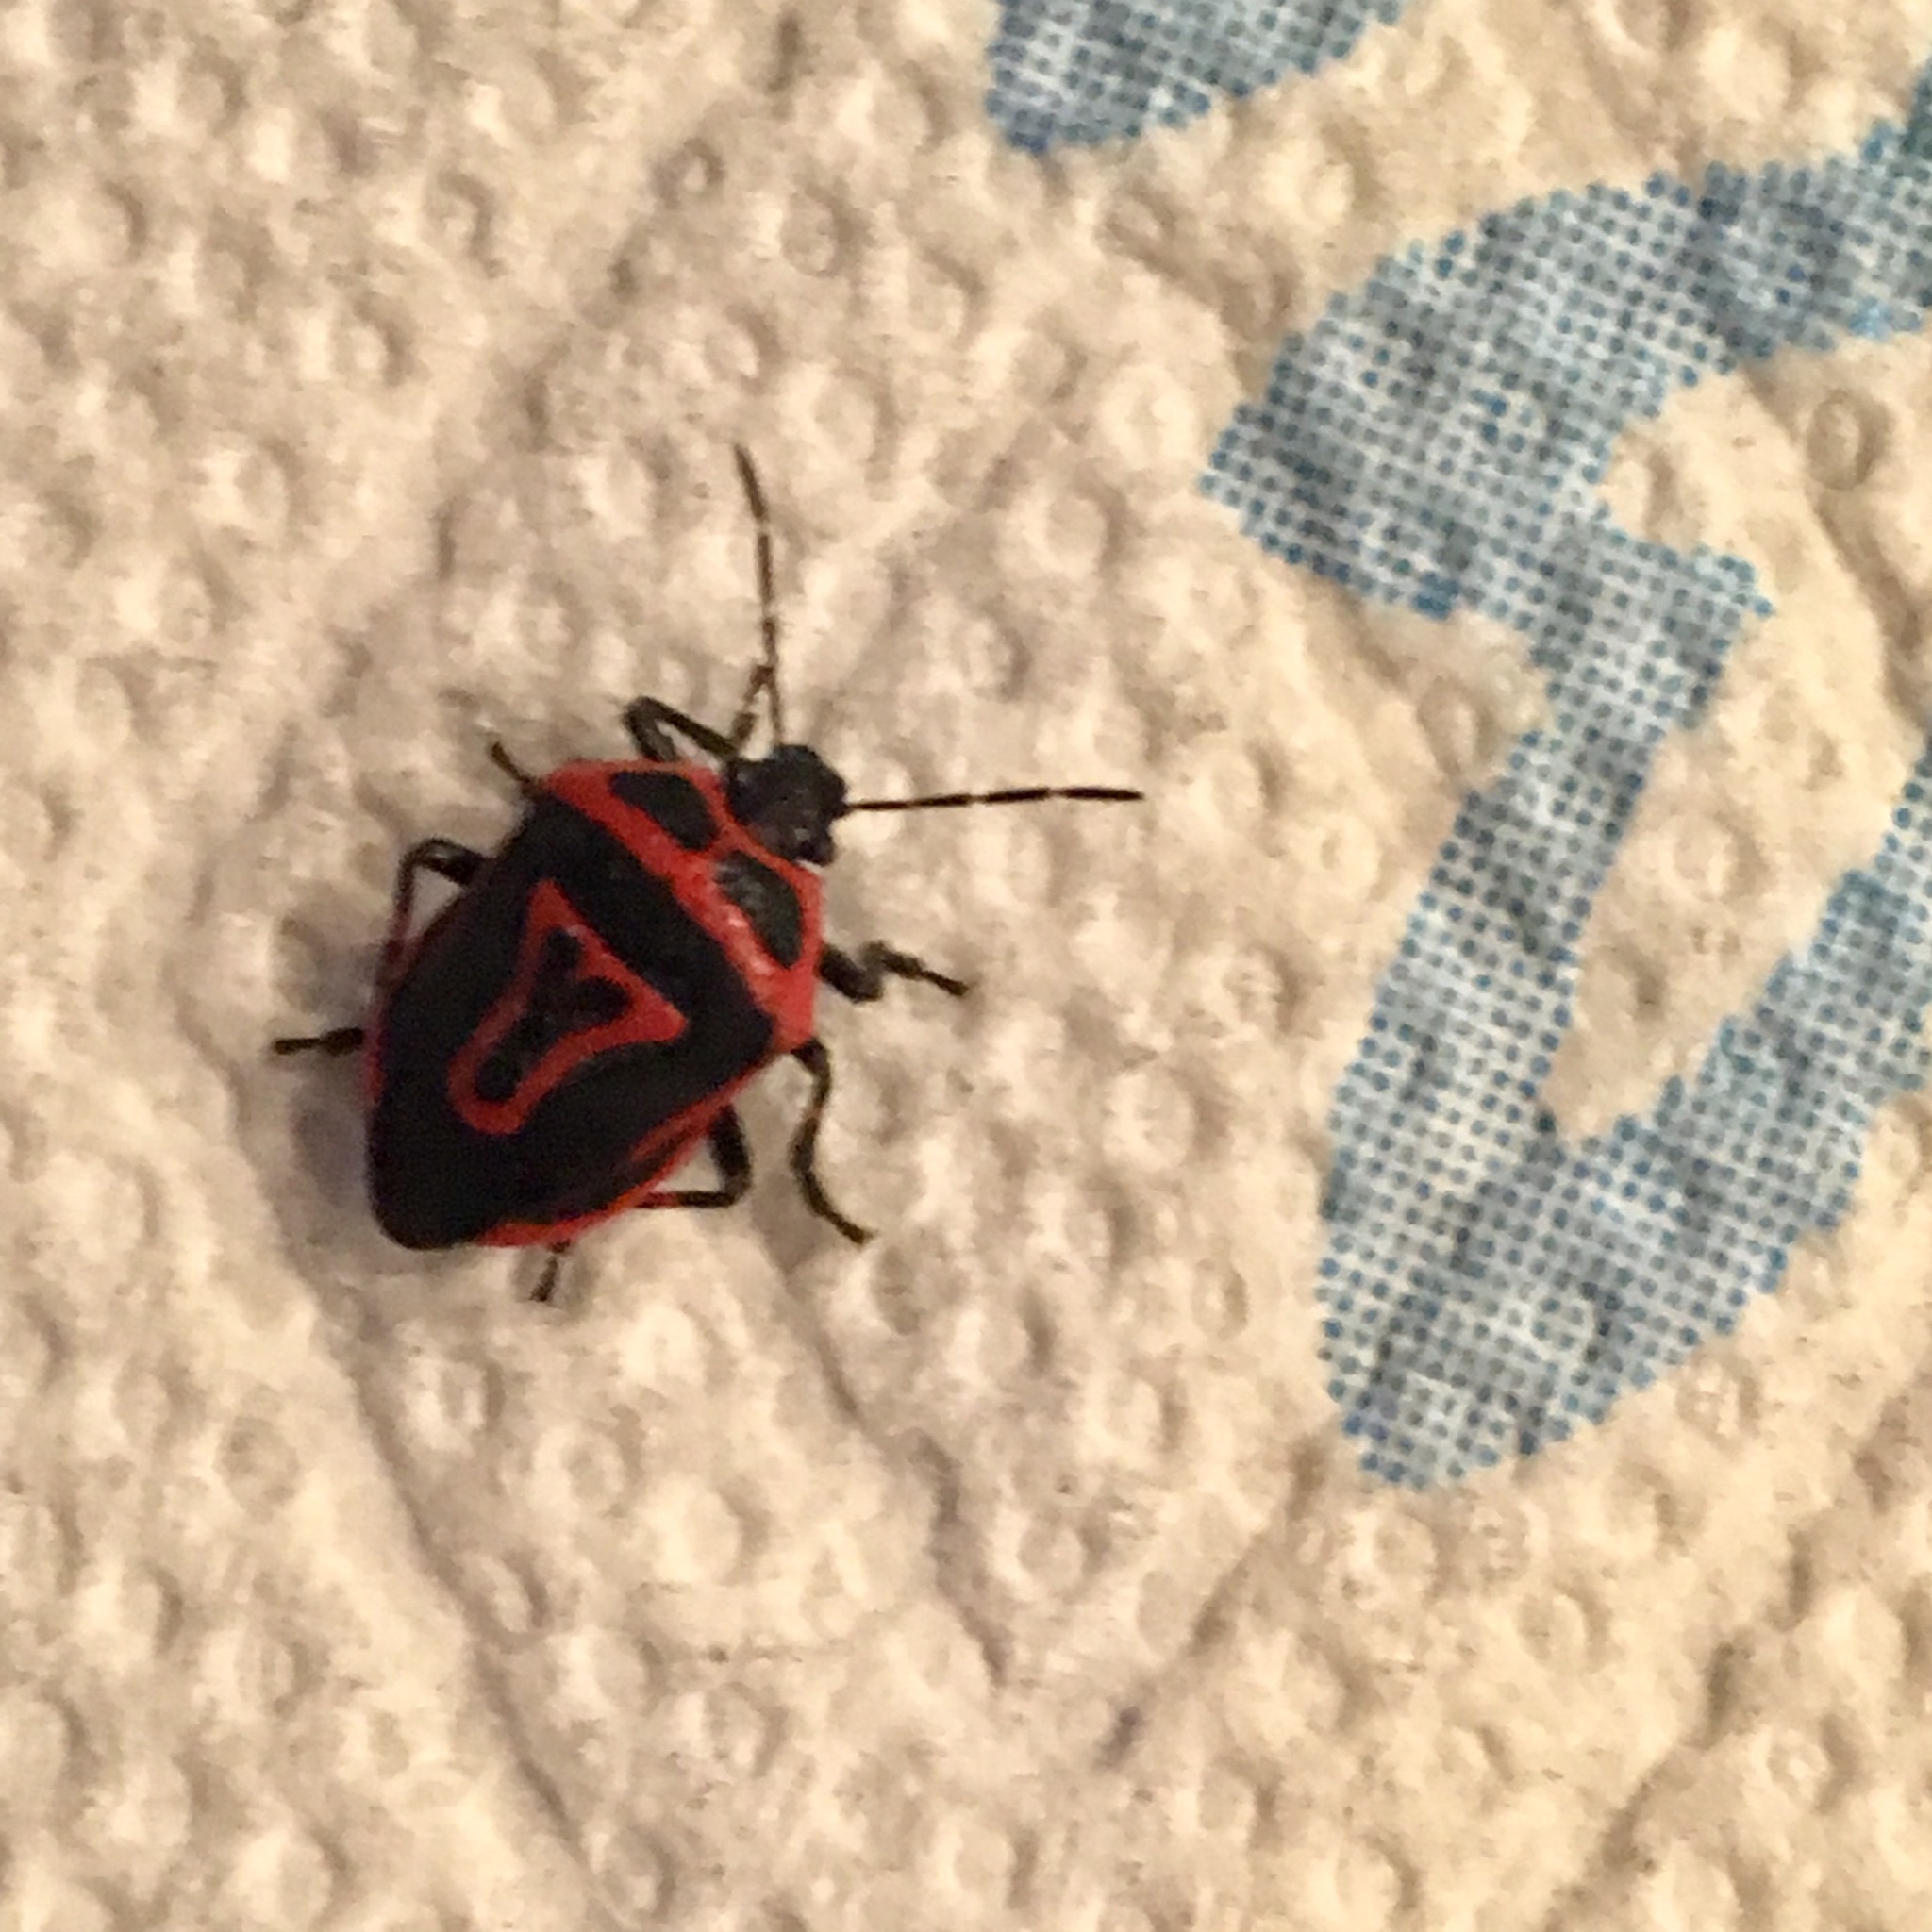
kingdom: Animalia
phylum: Arthropoda
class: Insecta
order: Hemiptera
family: Pentatomidae
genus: Perillus
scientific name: Perillus bioculatus
